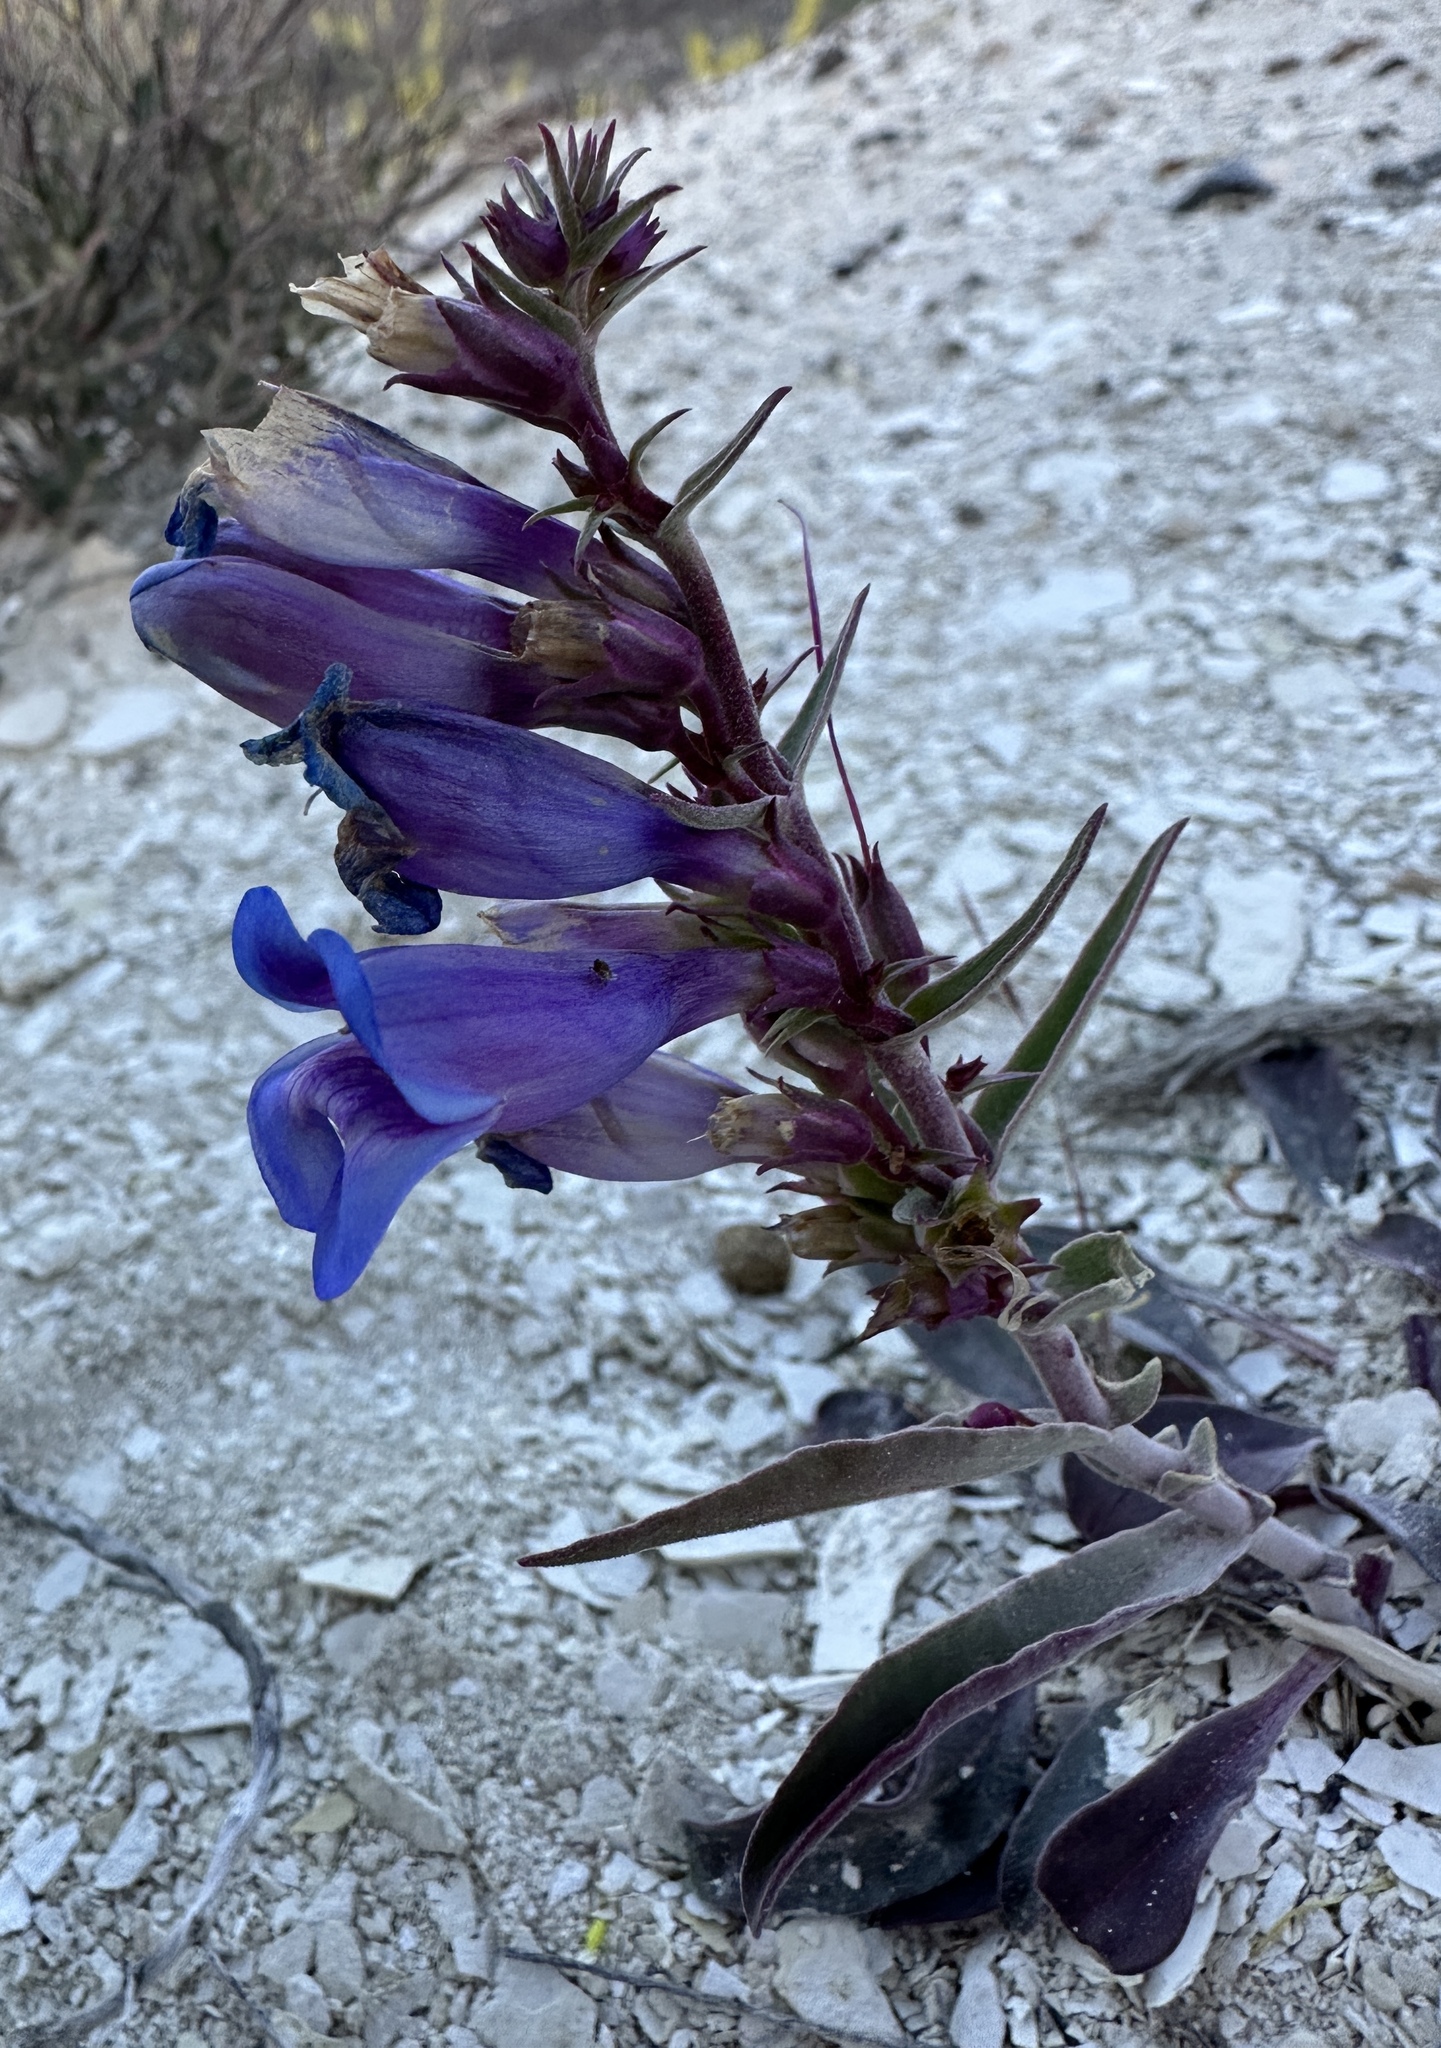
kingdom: Plantae
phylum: Tracheophyta
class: Magnoliopsida
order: Lamiales
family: Plantaginaceae
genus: Penstemon
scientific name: Penstemon speciosus
